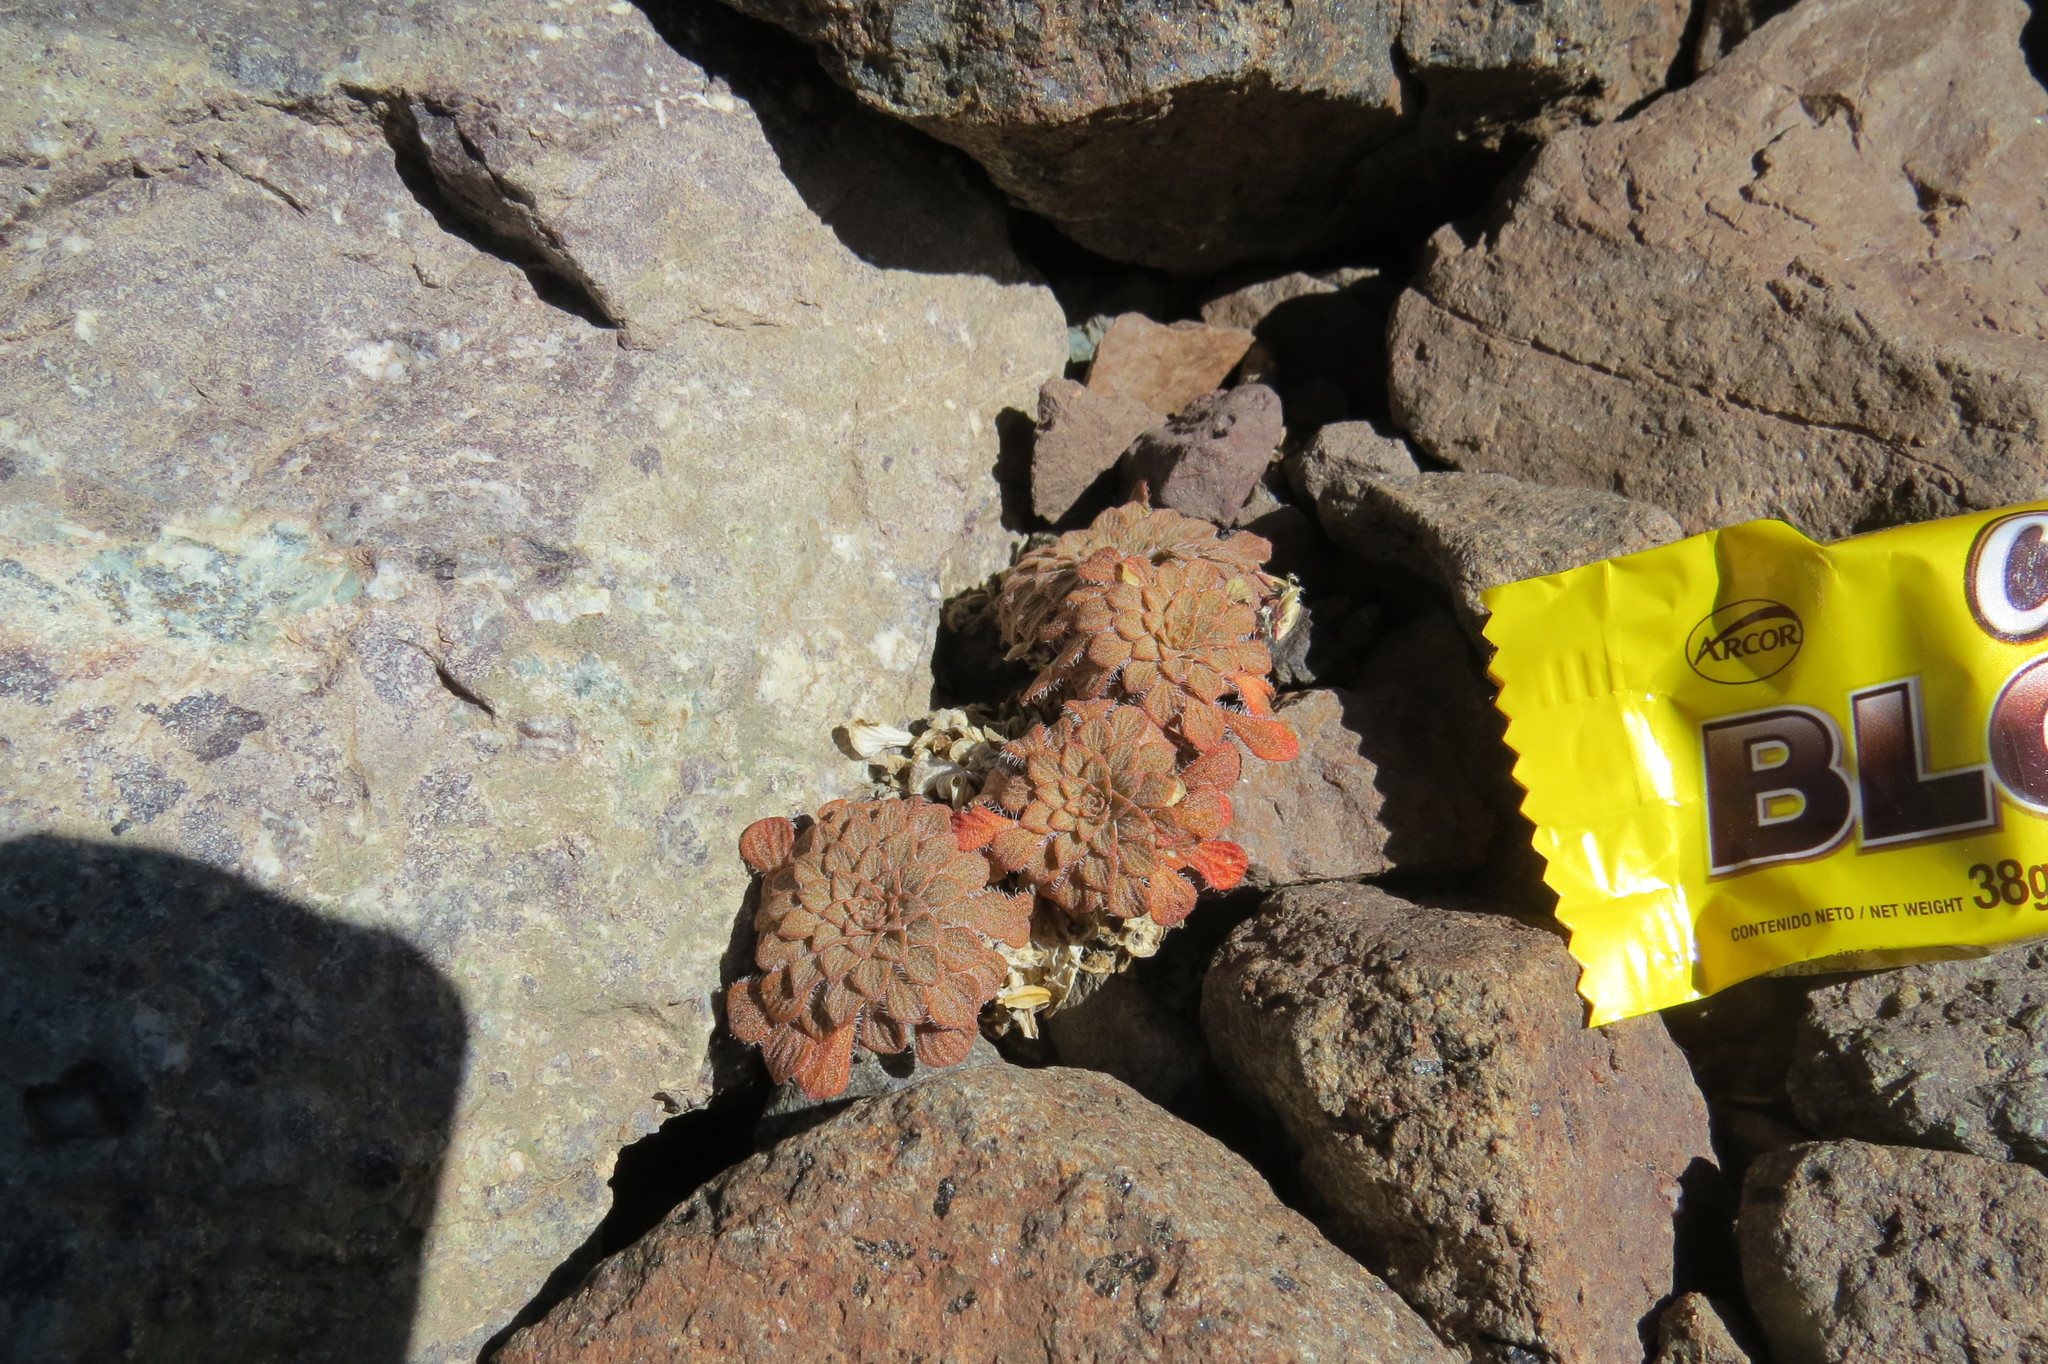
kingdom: Plantae
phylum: Tracheophyta
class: Magnoliopsida
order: Malpighiales
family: Violaceae
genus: Viola
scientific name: Viola montagnei
